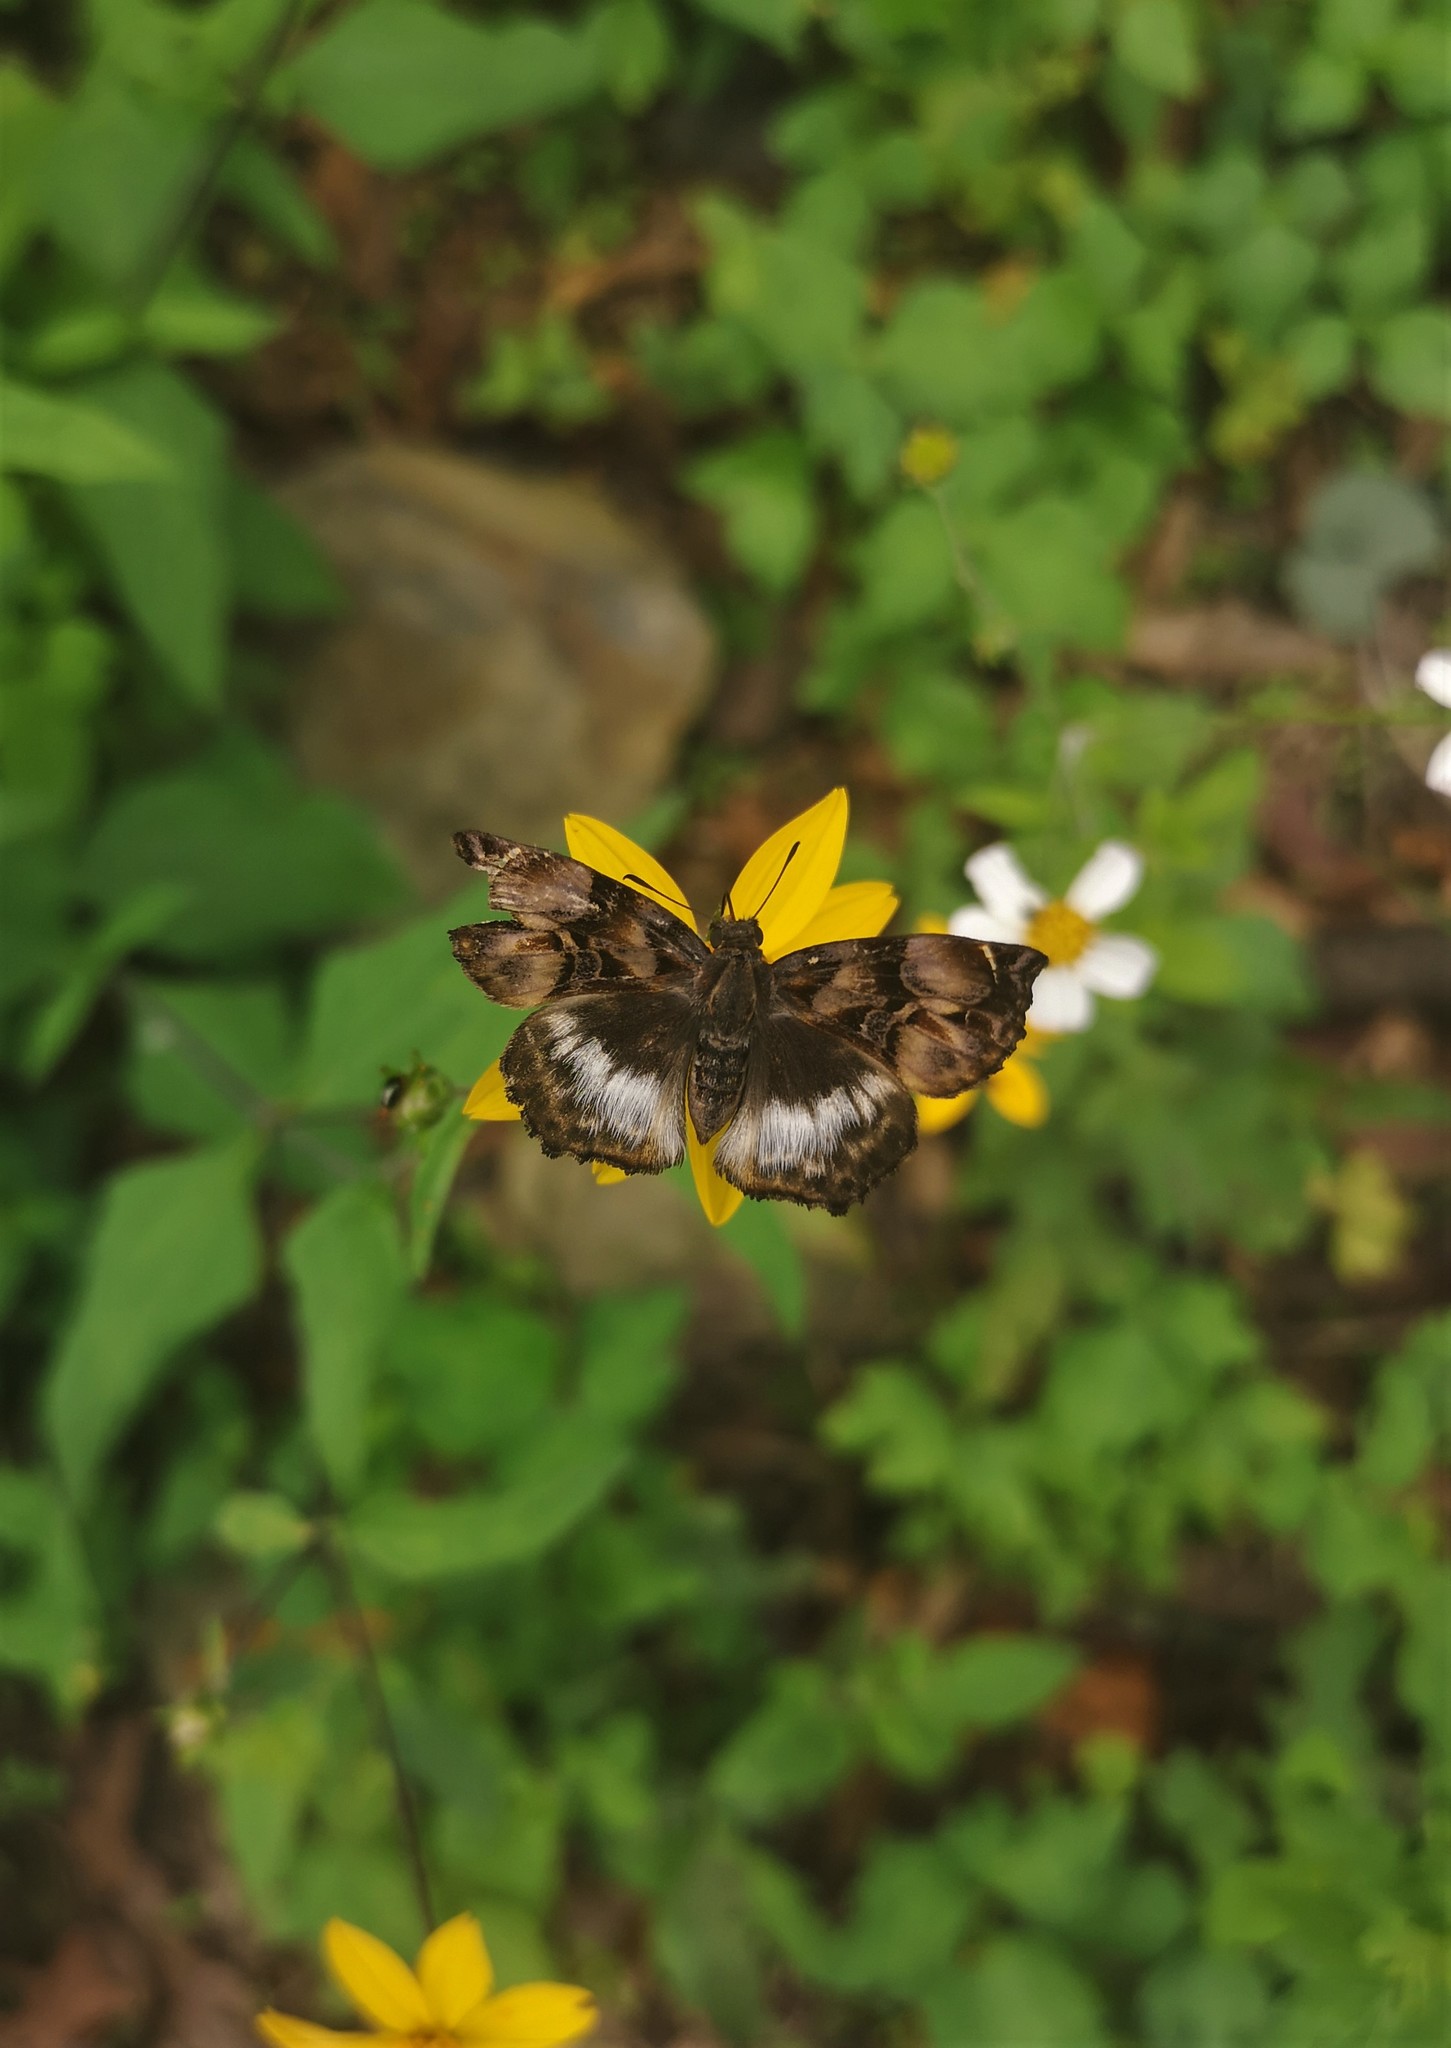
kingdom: Animalia
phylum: Arthropoda
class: Insecta
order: Lepidoptera
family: Hesperiidae
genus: Noctuana
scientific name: Noctuana lactifera
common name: Cryptic skipper
